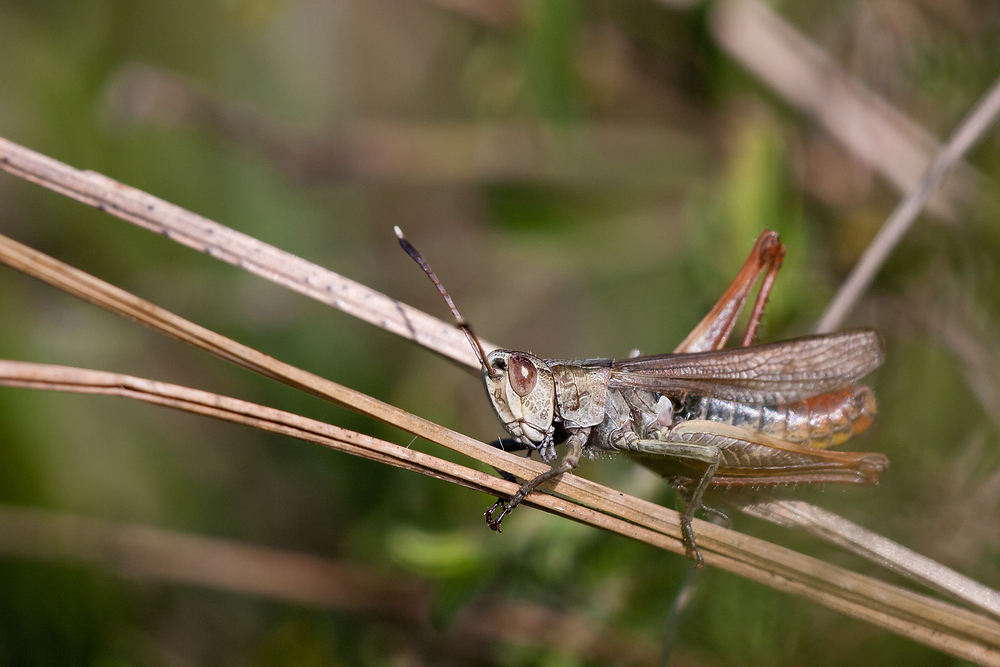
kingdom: Animalia
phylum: Arthropoda
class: Insecta
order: Orthoptera
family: Acrididae
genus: Gomphocerippus
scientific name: Gomphocerippus rufus
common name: Rufous grasshopper
